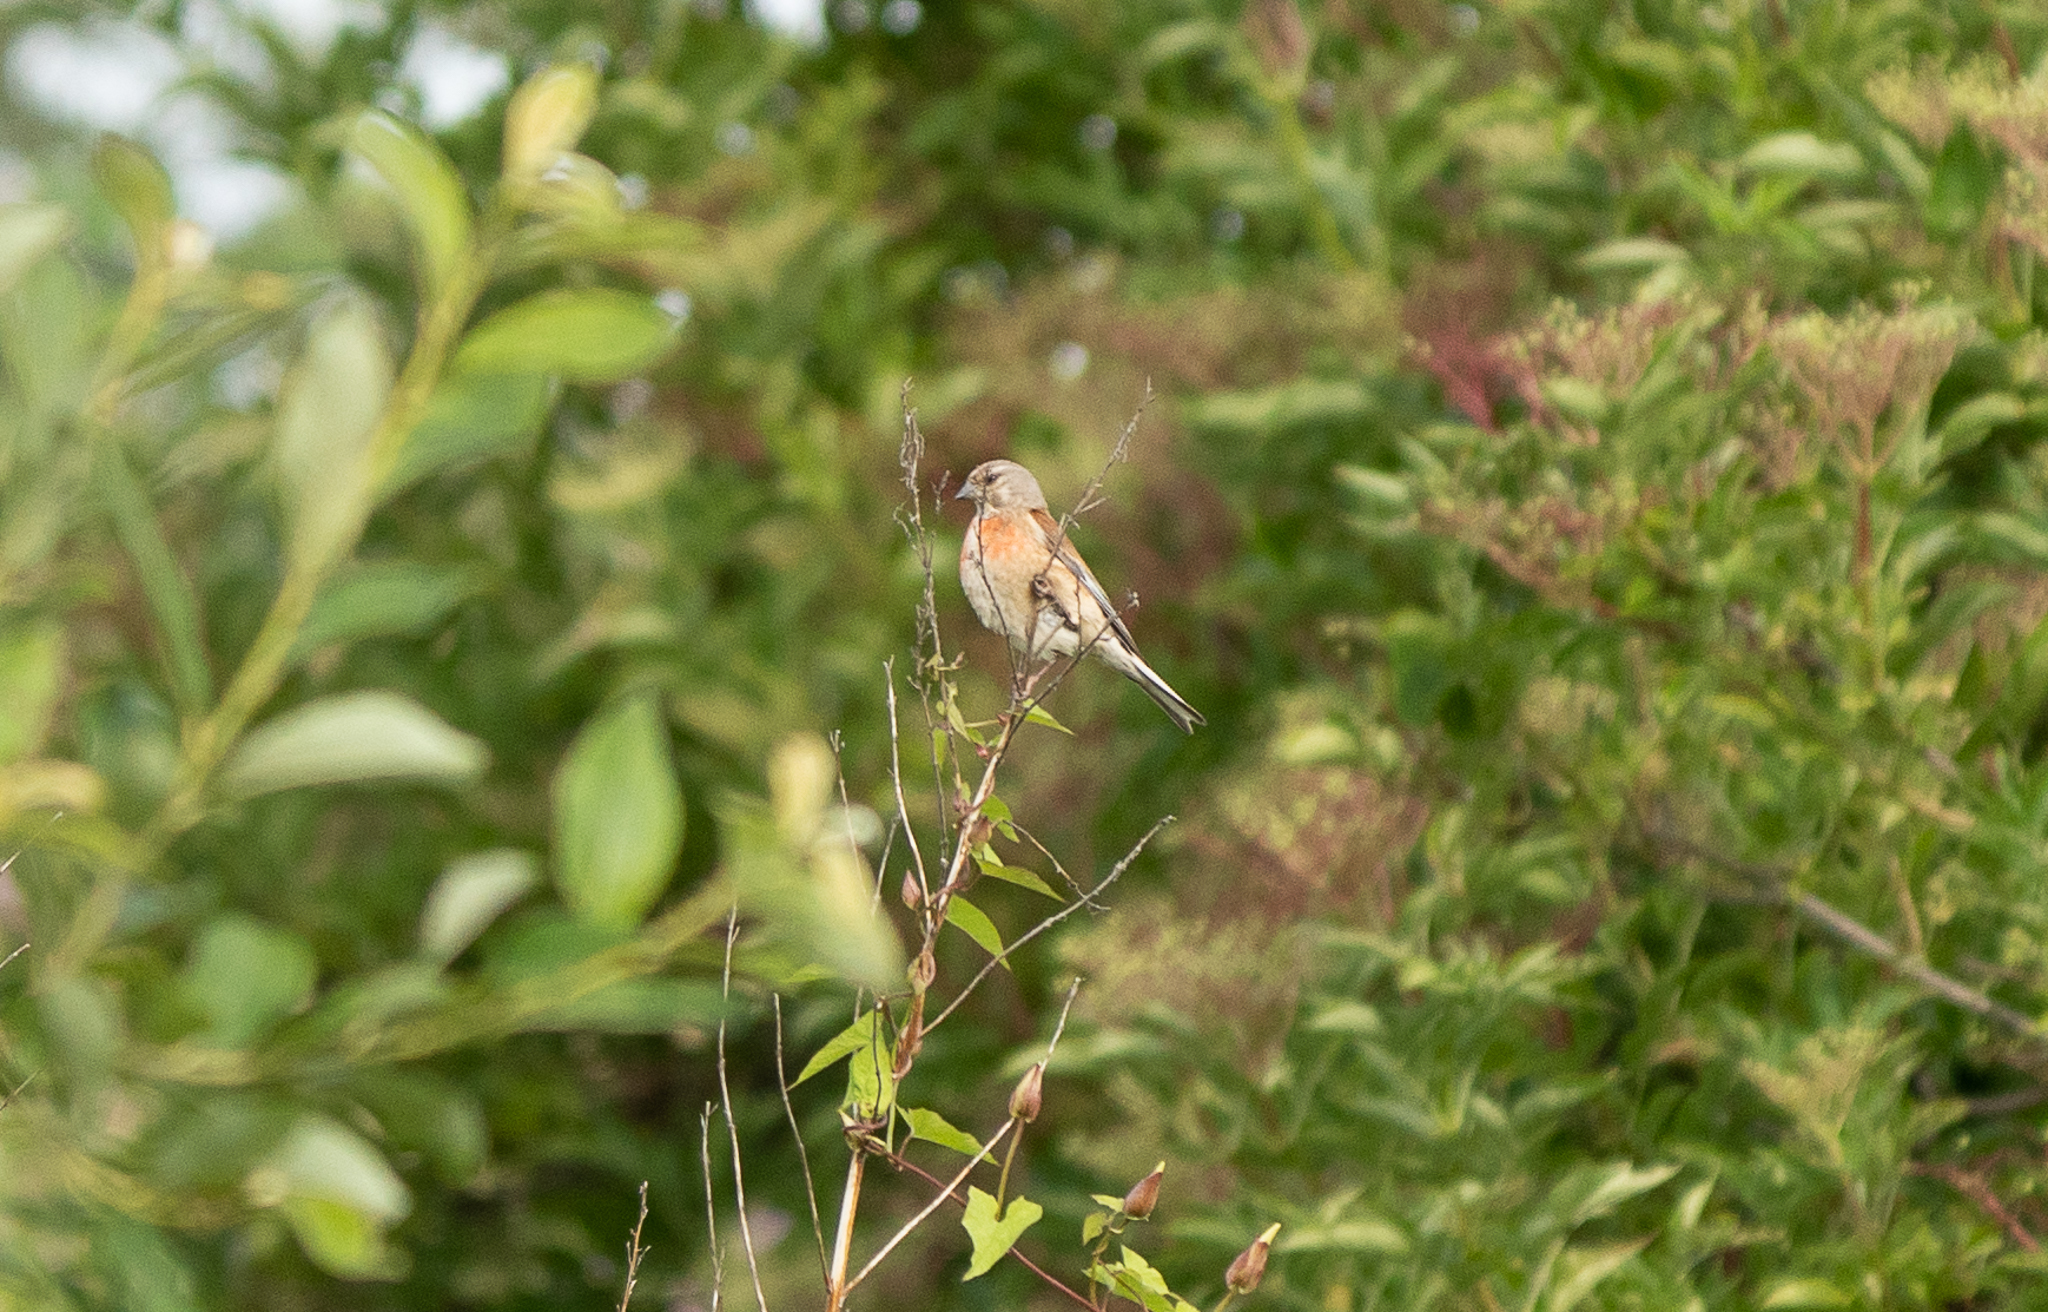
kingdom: Animalia
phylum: Chordata
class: Aves
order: Passeriformes
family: Fringillidae
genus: Linaria
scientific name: Linaria cannabina
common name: Common linnet
